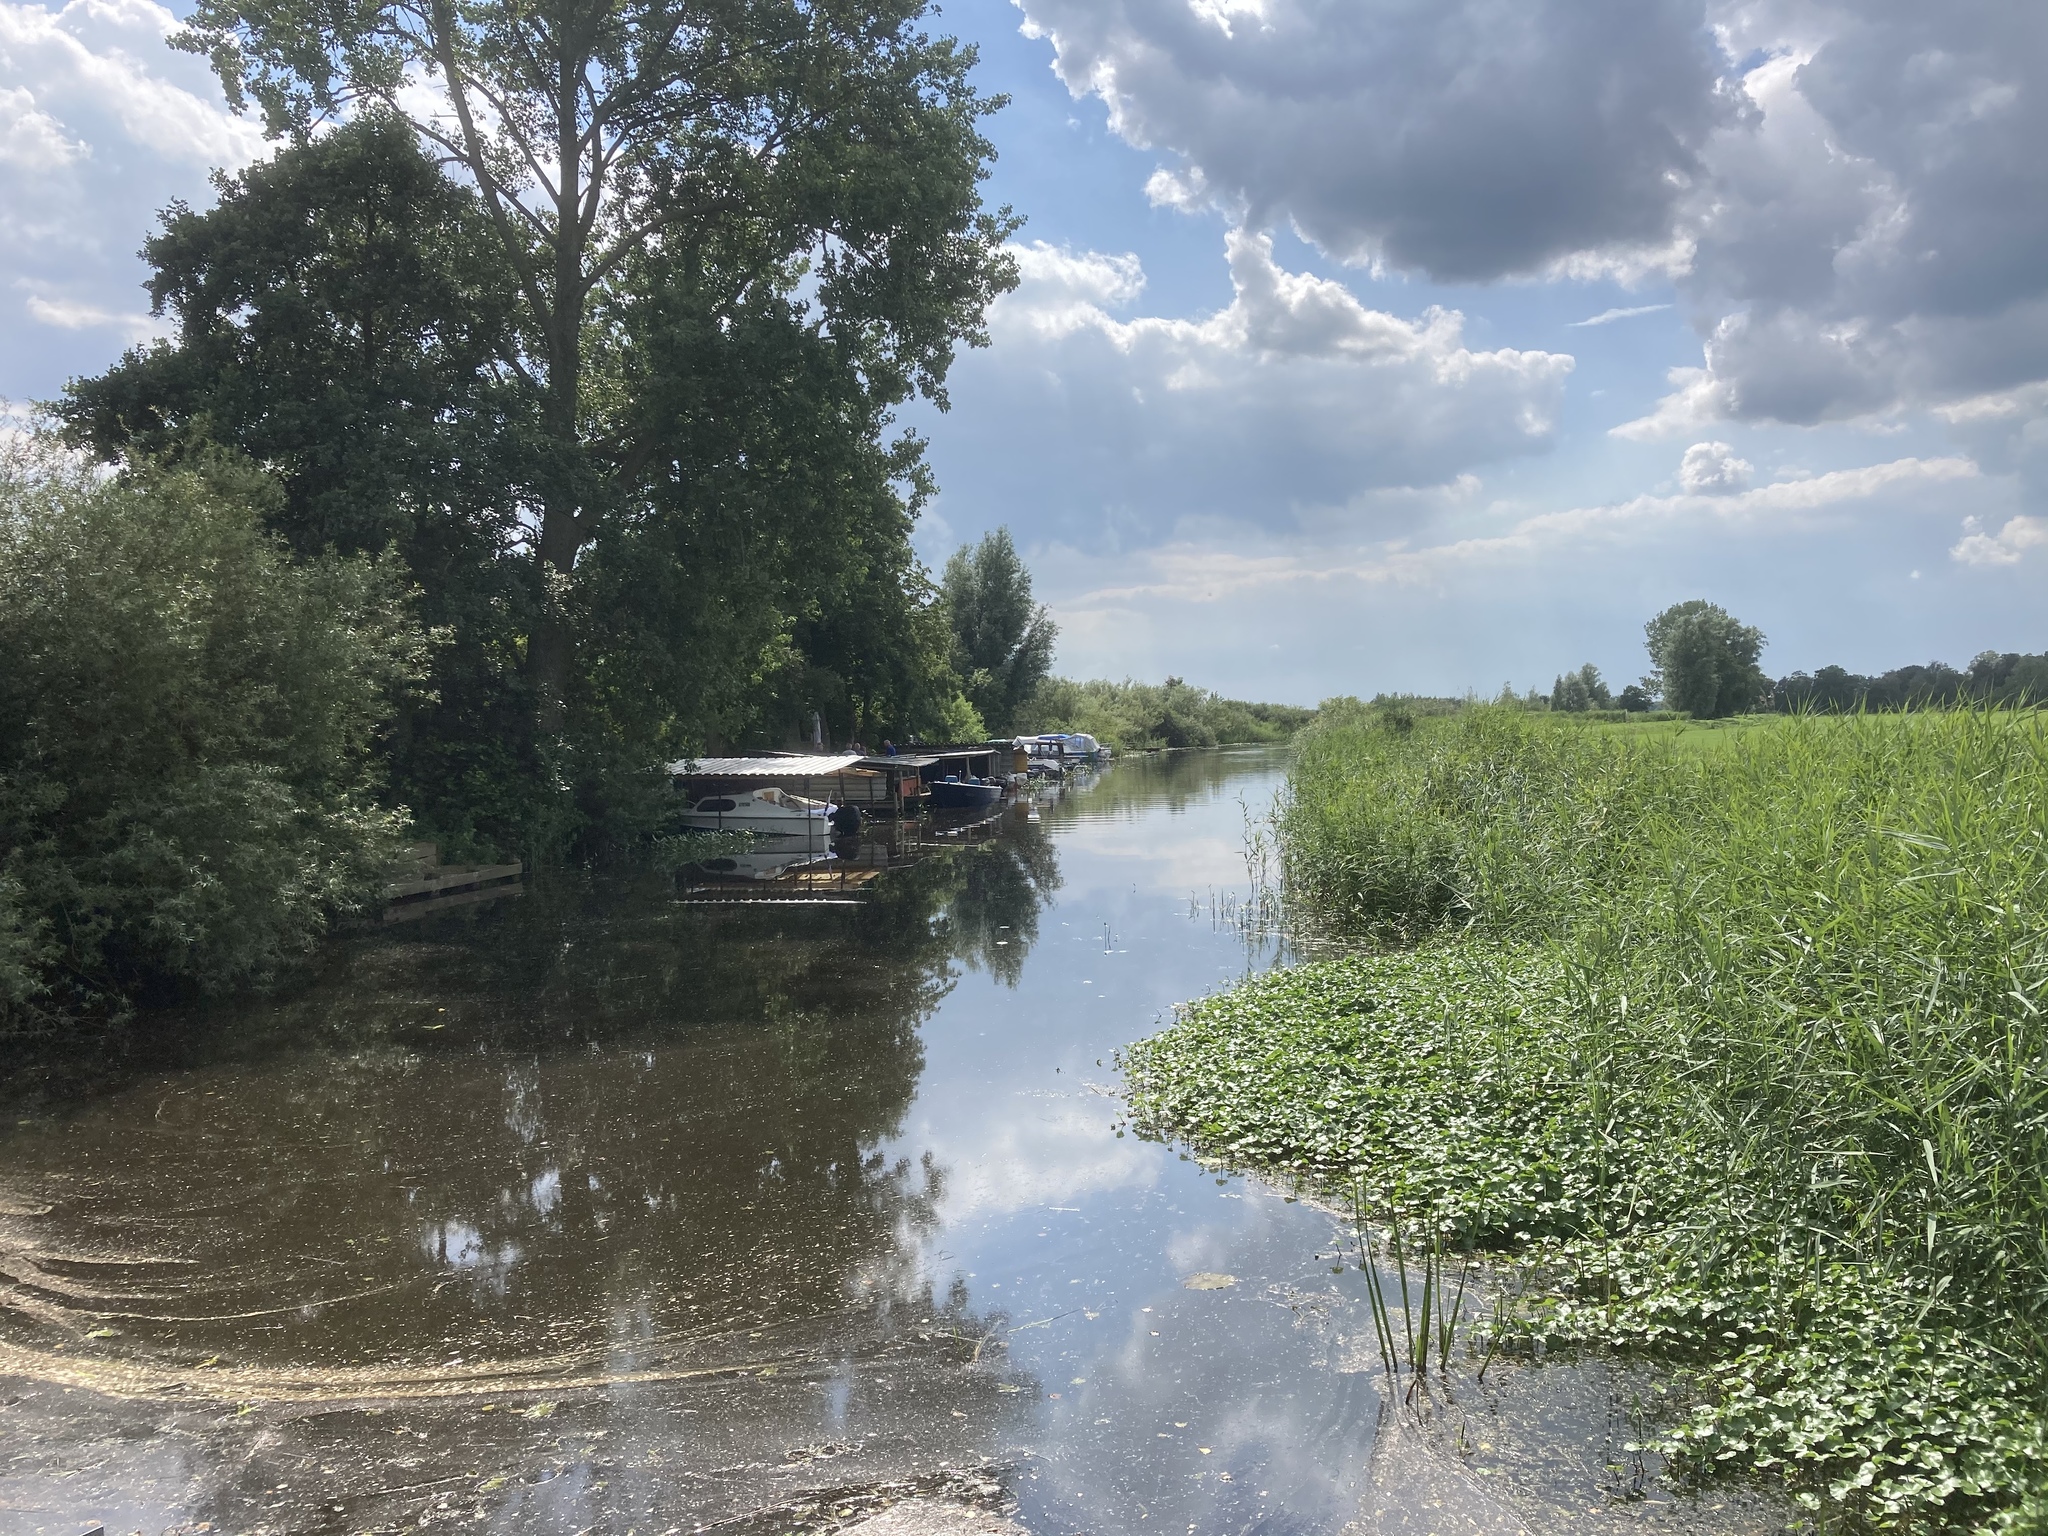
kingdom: Plantae
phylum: Tracheophyta
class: Liliopsida
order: Poales
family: Poaceae
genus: Phragmites
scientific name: Phragmites australis
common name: Common reed
